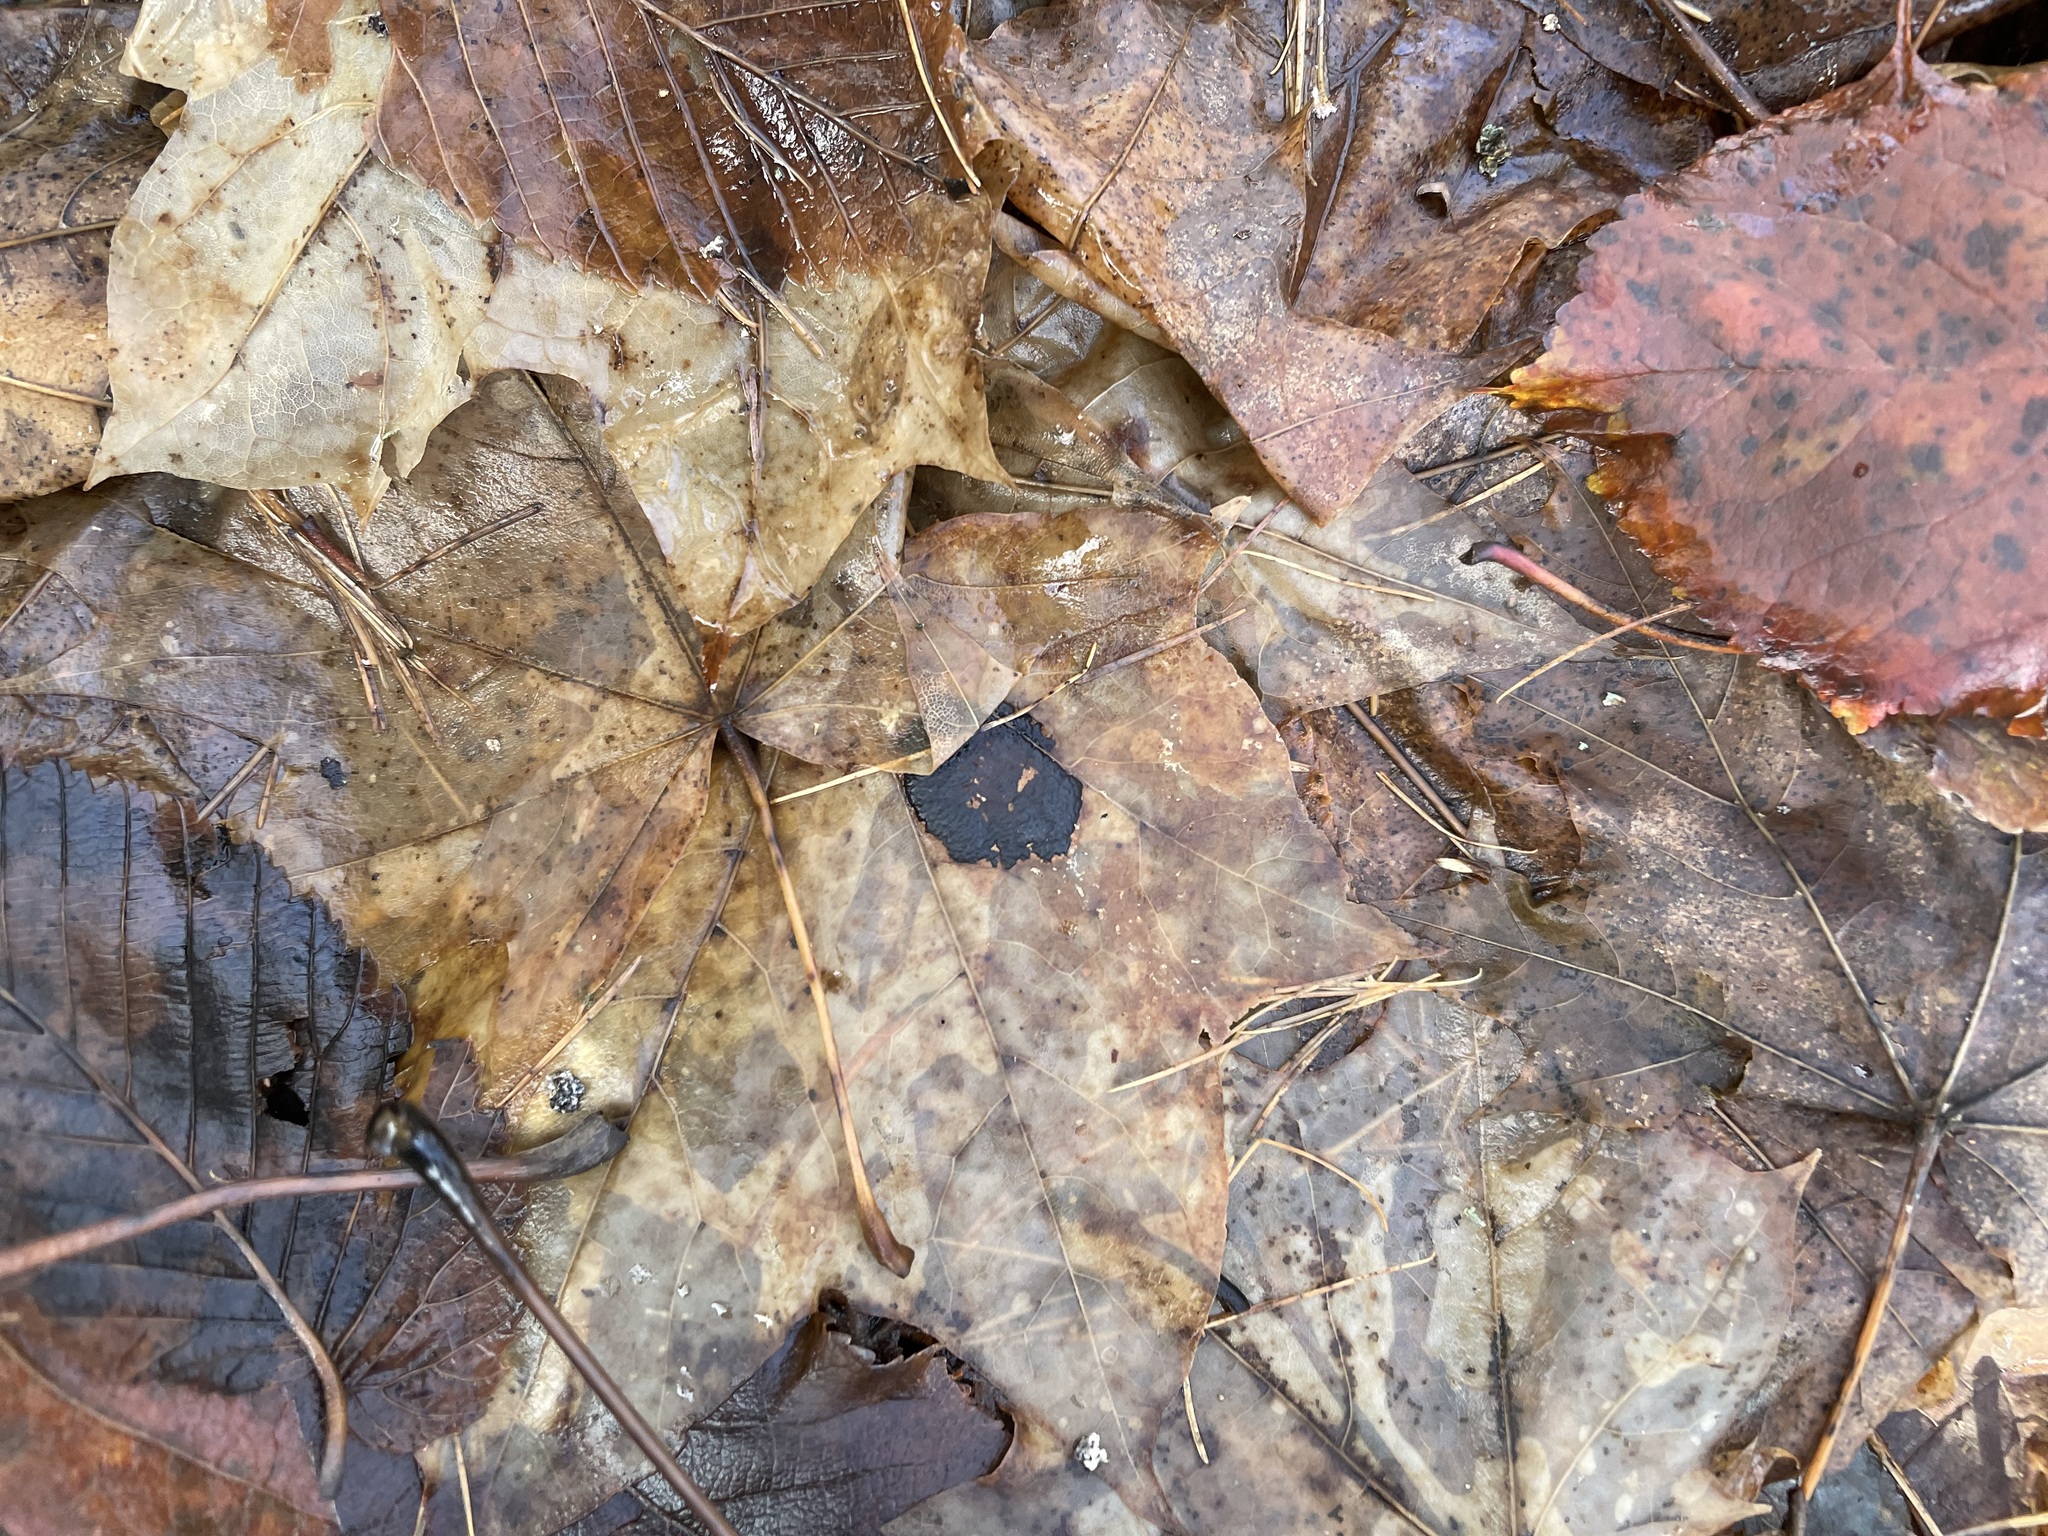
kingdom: Fungi
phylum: Ascomycota
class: Leotiomycetes
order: Rhytismatales
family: Rhytismataceae
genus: Rhytisma
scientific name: Rhytisma acerinum
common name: European tar spot
